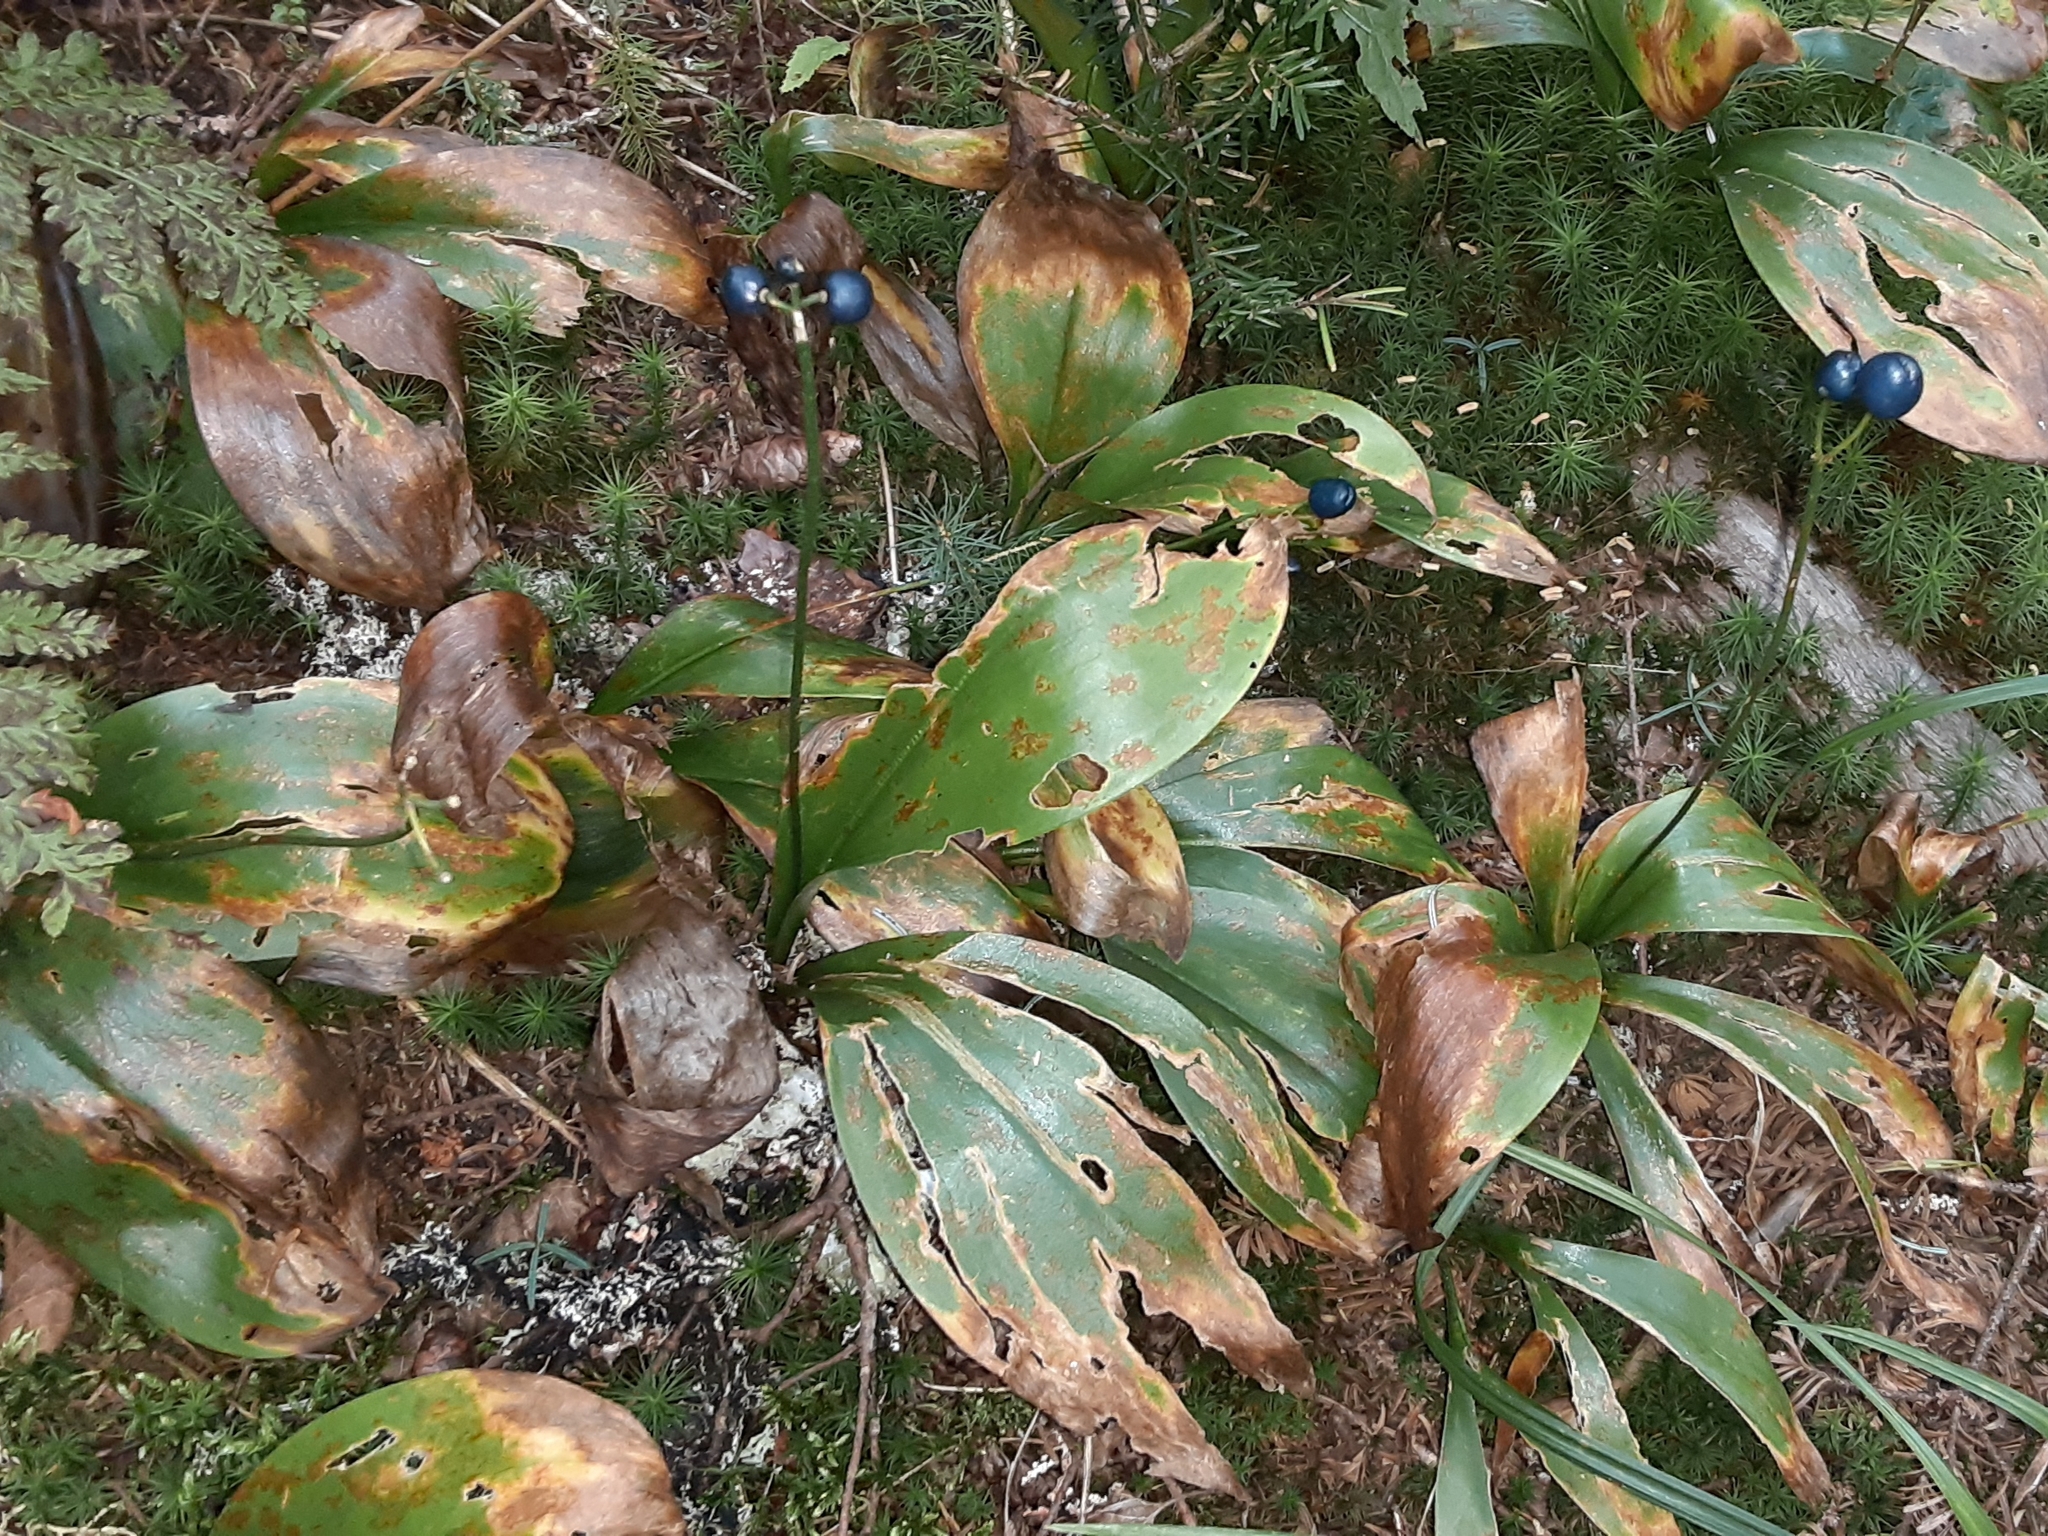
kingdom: Plantae
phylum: Tracheophyta
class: Liliopsida
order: Liliales
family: Liliaceae
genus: Clintonia
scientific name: Clintonia borealis
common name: Yellow clintonia
